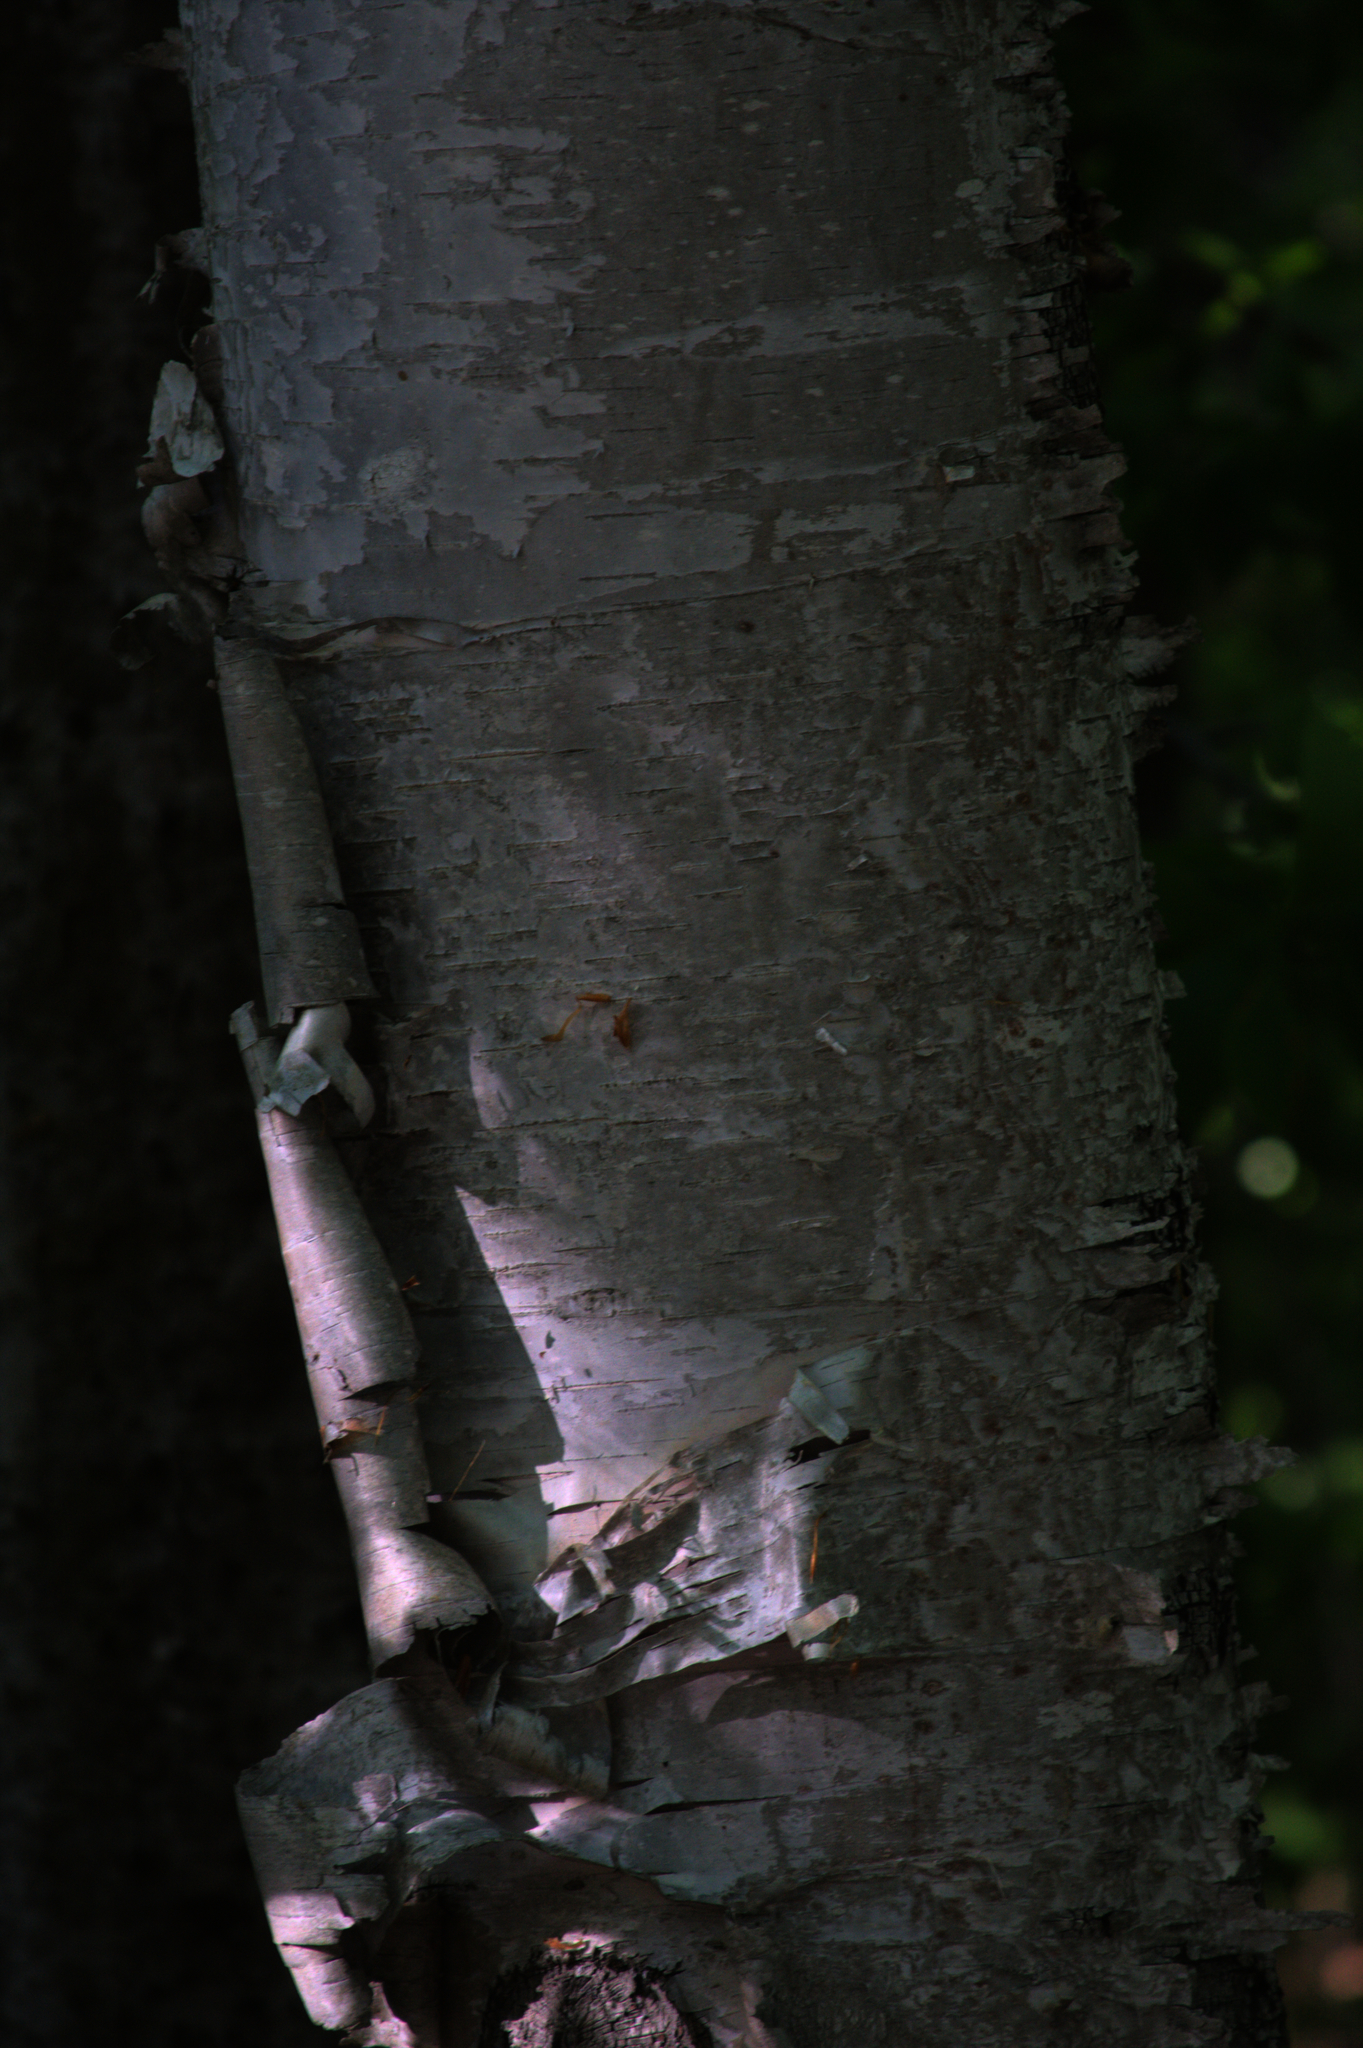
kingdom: Plantae
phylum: Tracheophyta
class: Magnoliopsida
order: Fagales
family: Betulaceae
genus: Betula
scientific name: Betula papyrifera
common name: Paper birch
